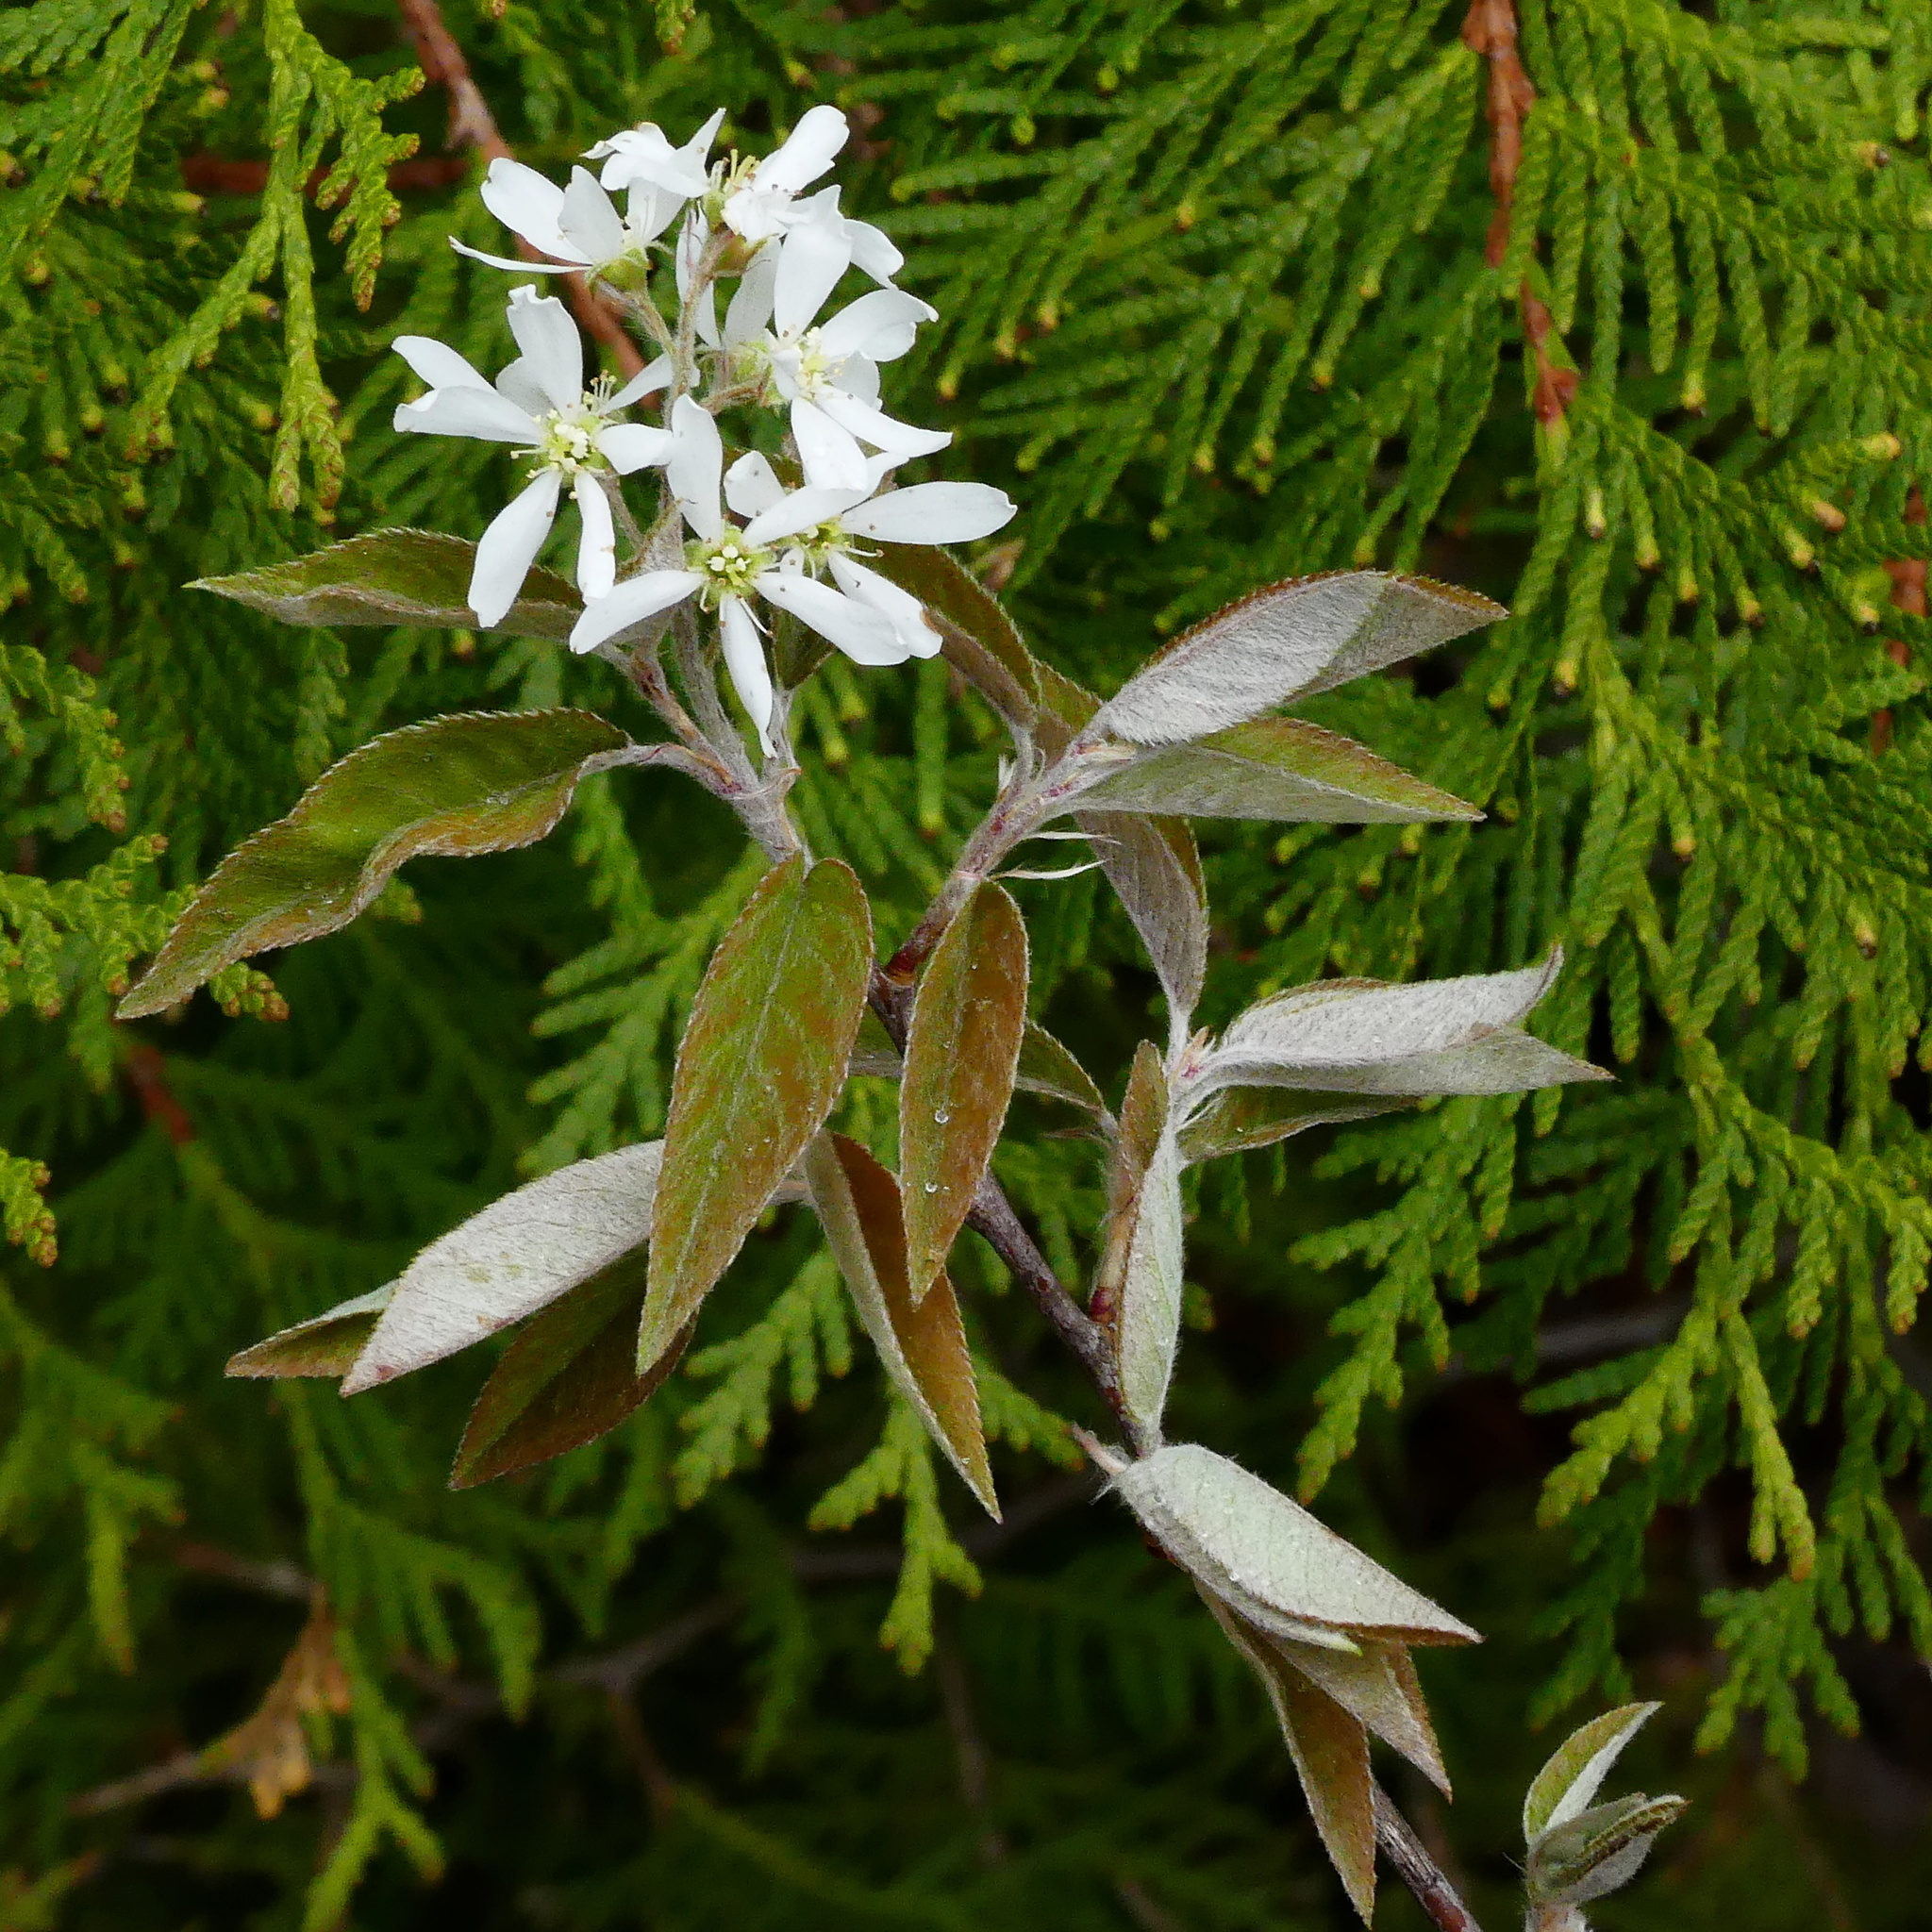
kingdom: Plantae
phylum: Tracheophyta
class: Magnoliopsida
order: Rosales
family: Rosaceae
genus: Amelanchier
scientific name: Amelanchier arborea
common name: Downy serviceberry
